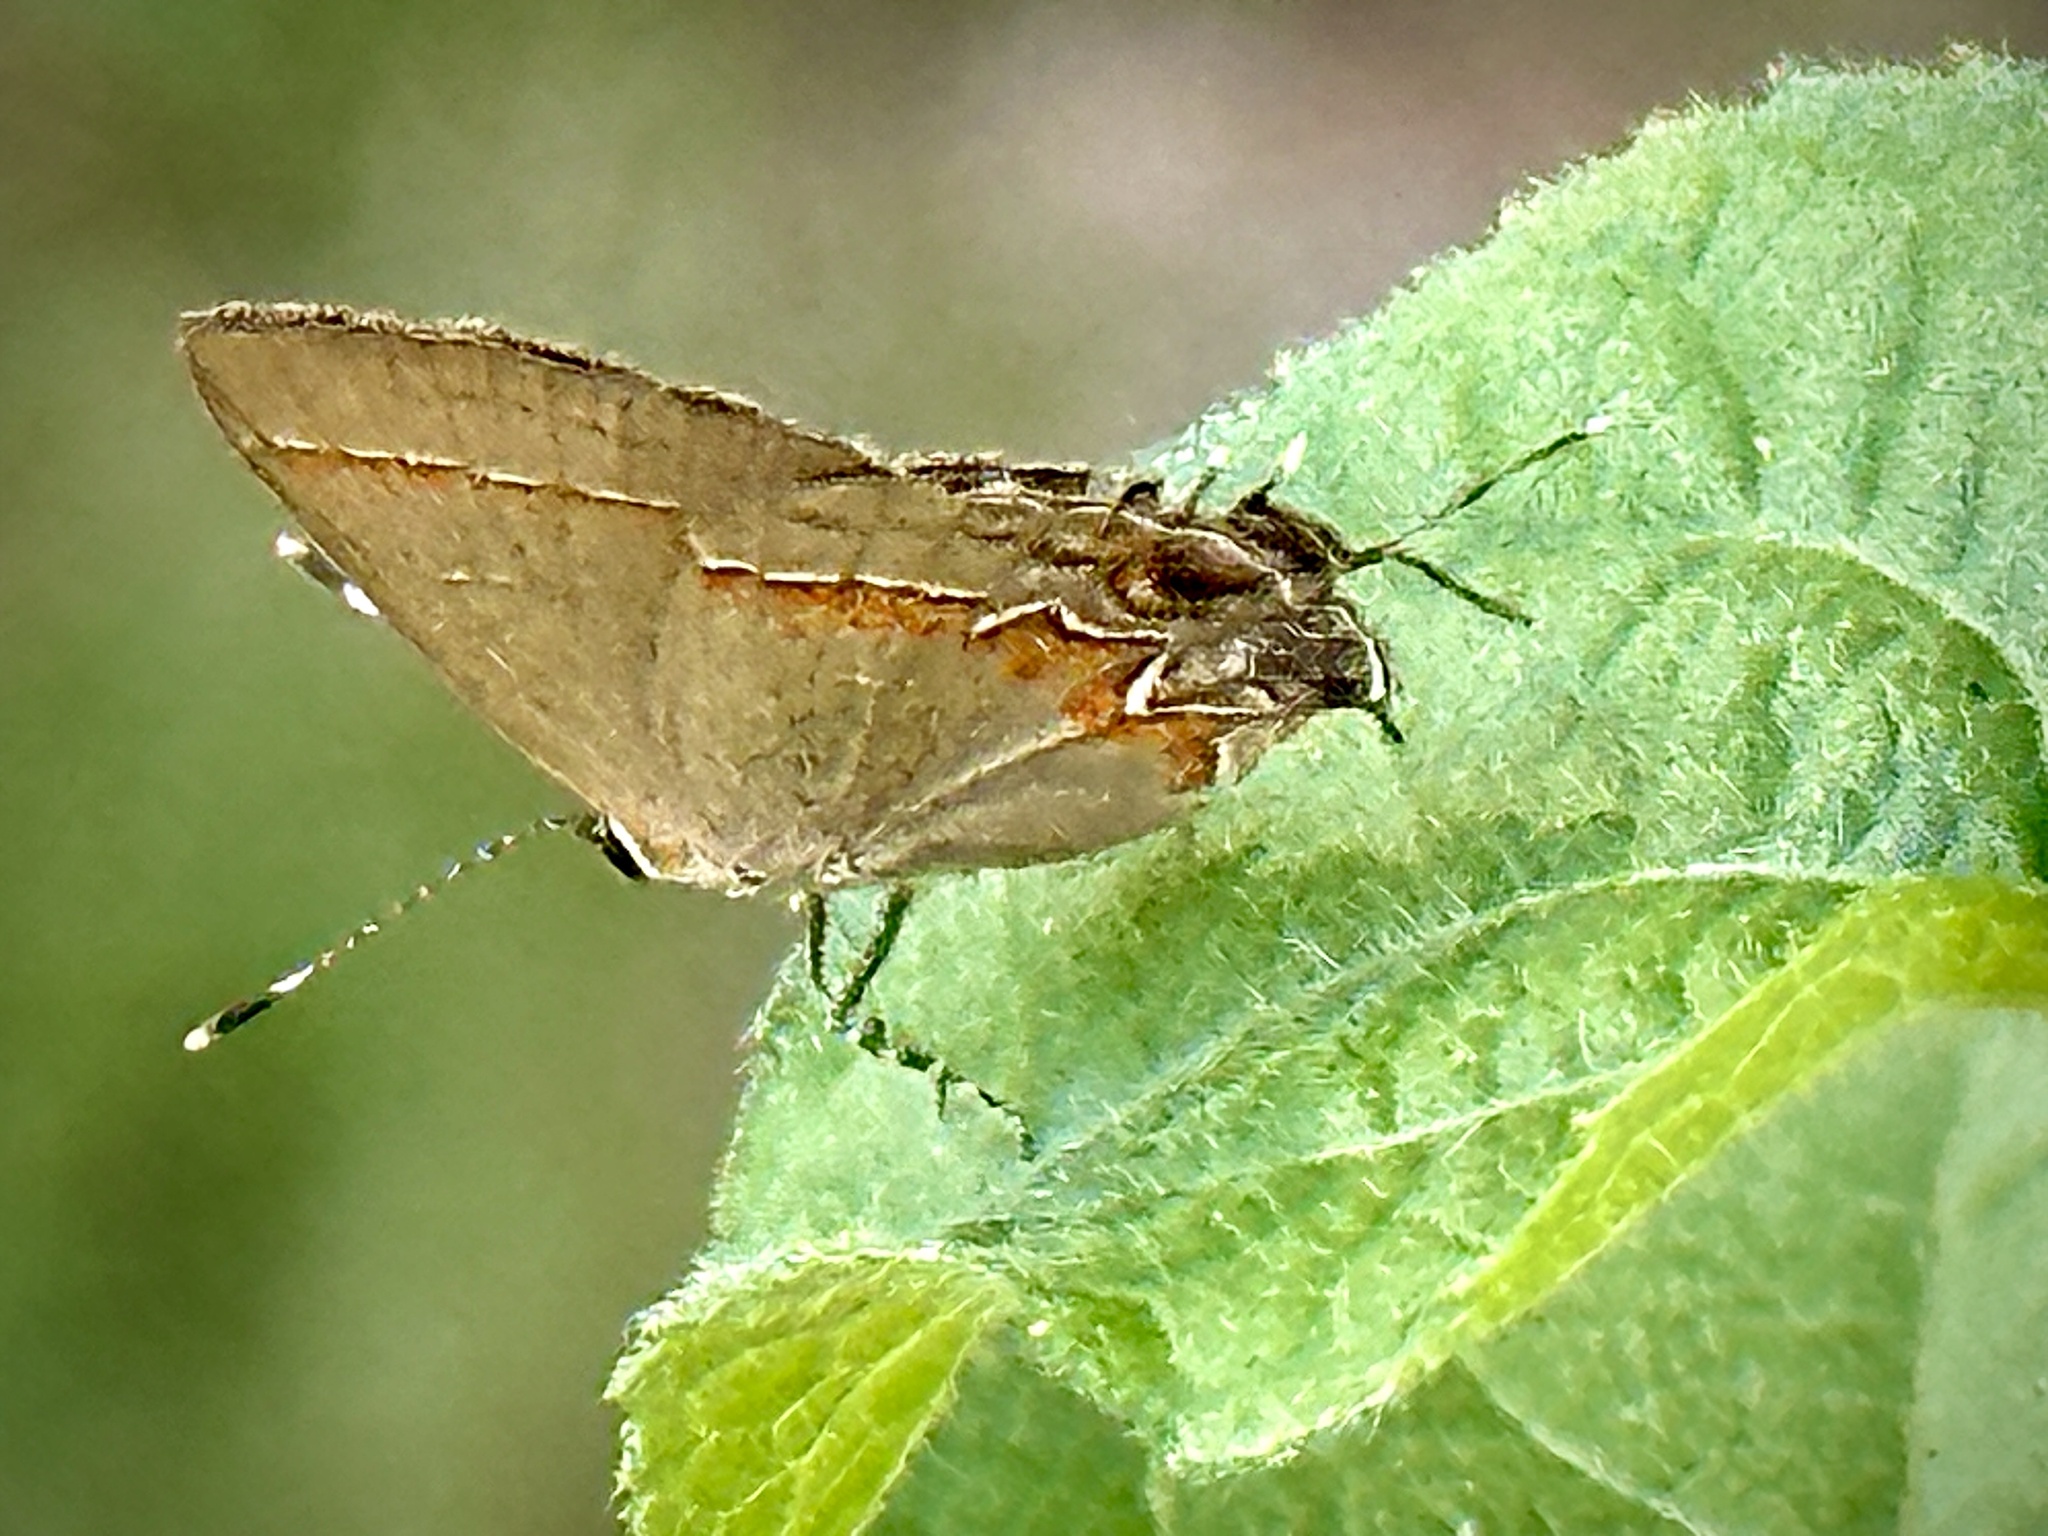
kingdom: Animalia
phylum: Arthropoda
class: Insecta
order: Lepidoptera
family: Lycaenidae
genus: Calycopis
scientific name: Calycopis cecrops
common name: Red-banded hairstreak
